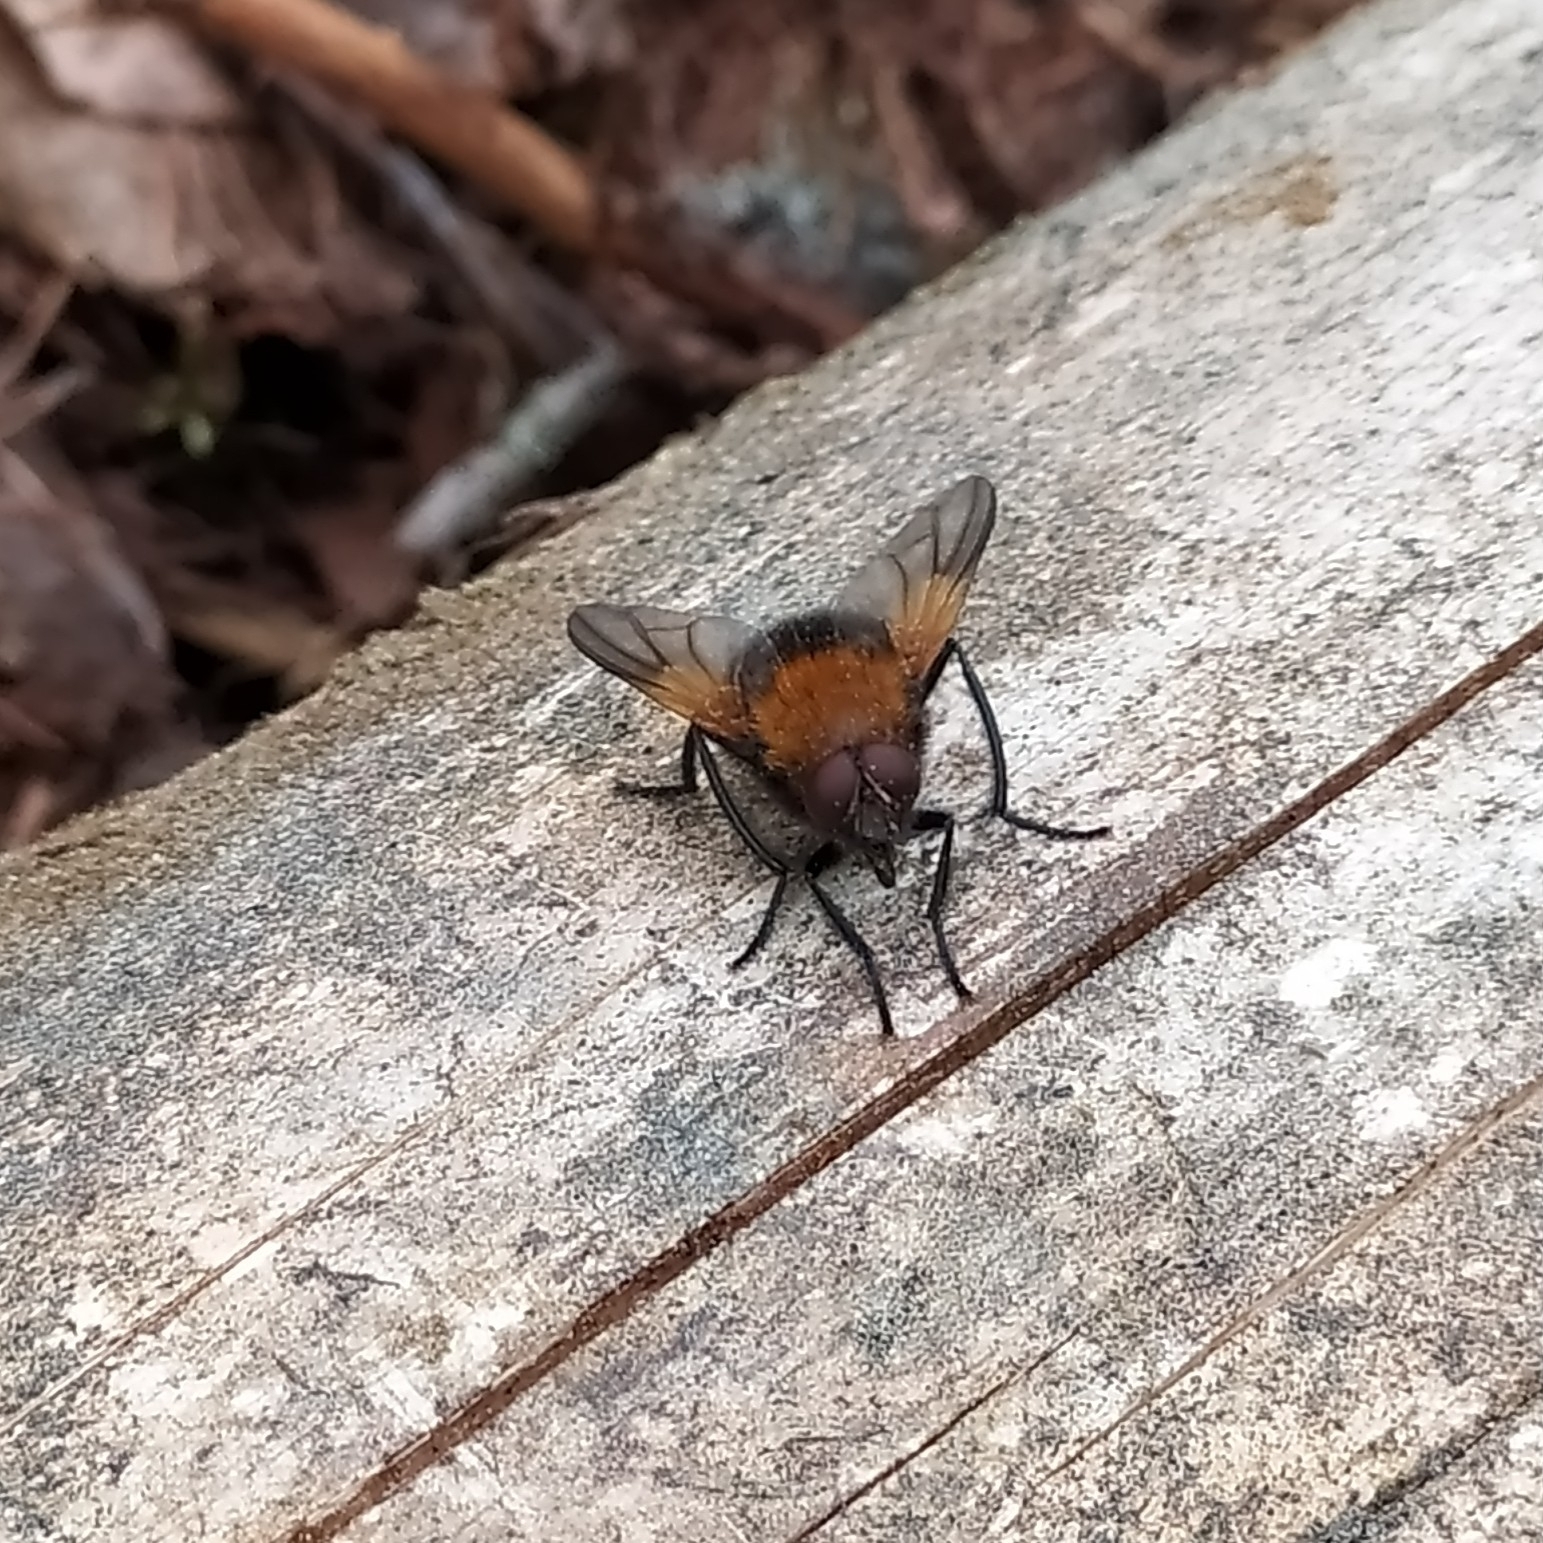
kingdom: Animalia
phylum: Arthropoda
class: Insecta
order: Diptera
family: Muscidae
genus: Mesembrina
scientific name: Mesembrina mystacea
